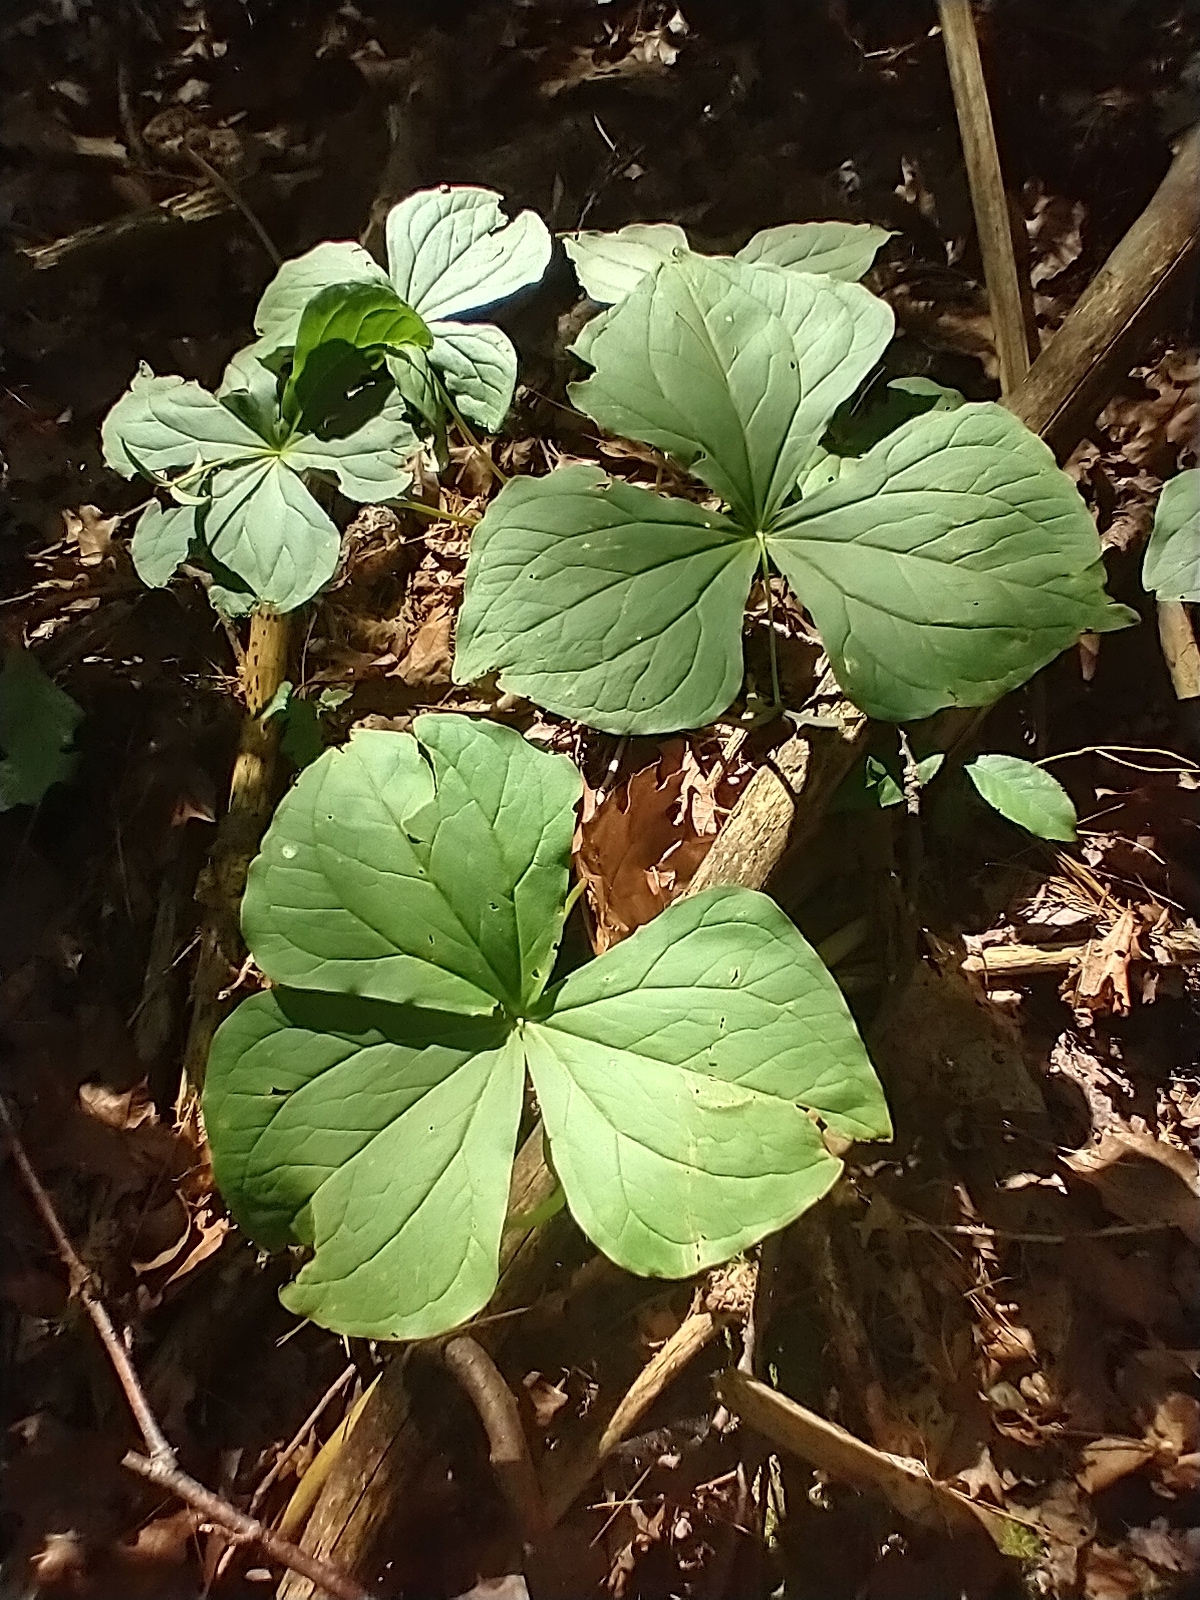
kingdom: Plantae
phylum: Tracheophyta
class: Liliopsida
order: Liliales
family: Melanthiaceae
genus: Trillium
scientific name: Trillium erectum
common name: Purple trillium
